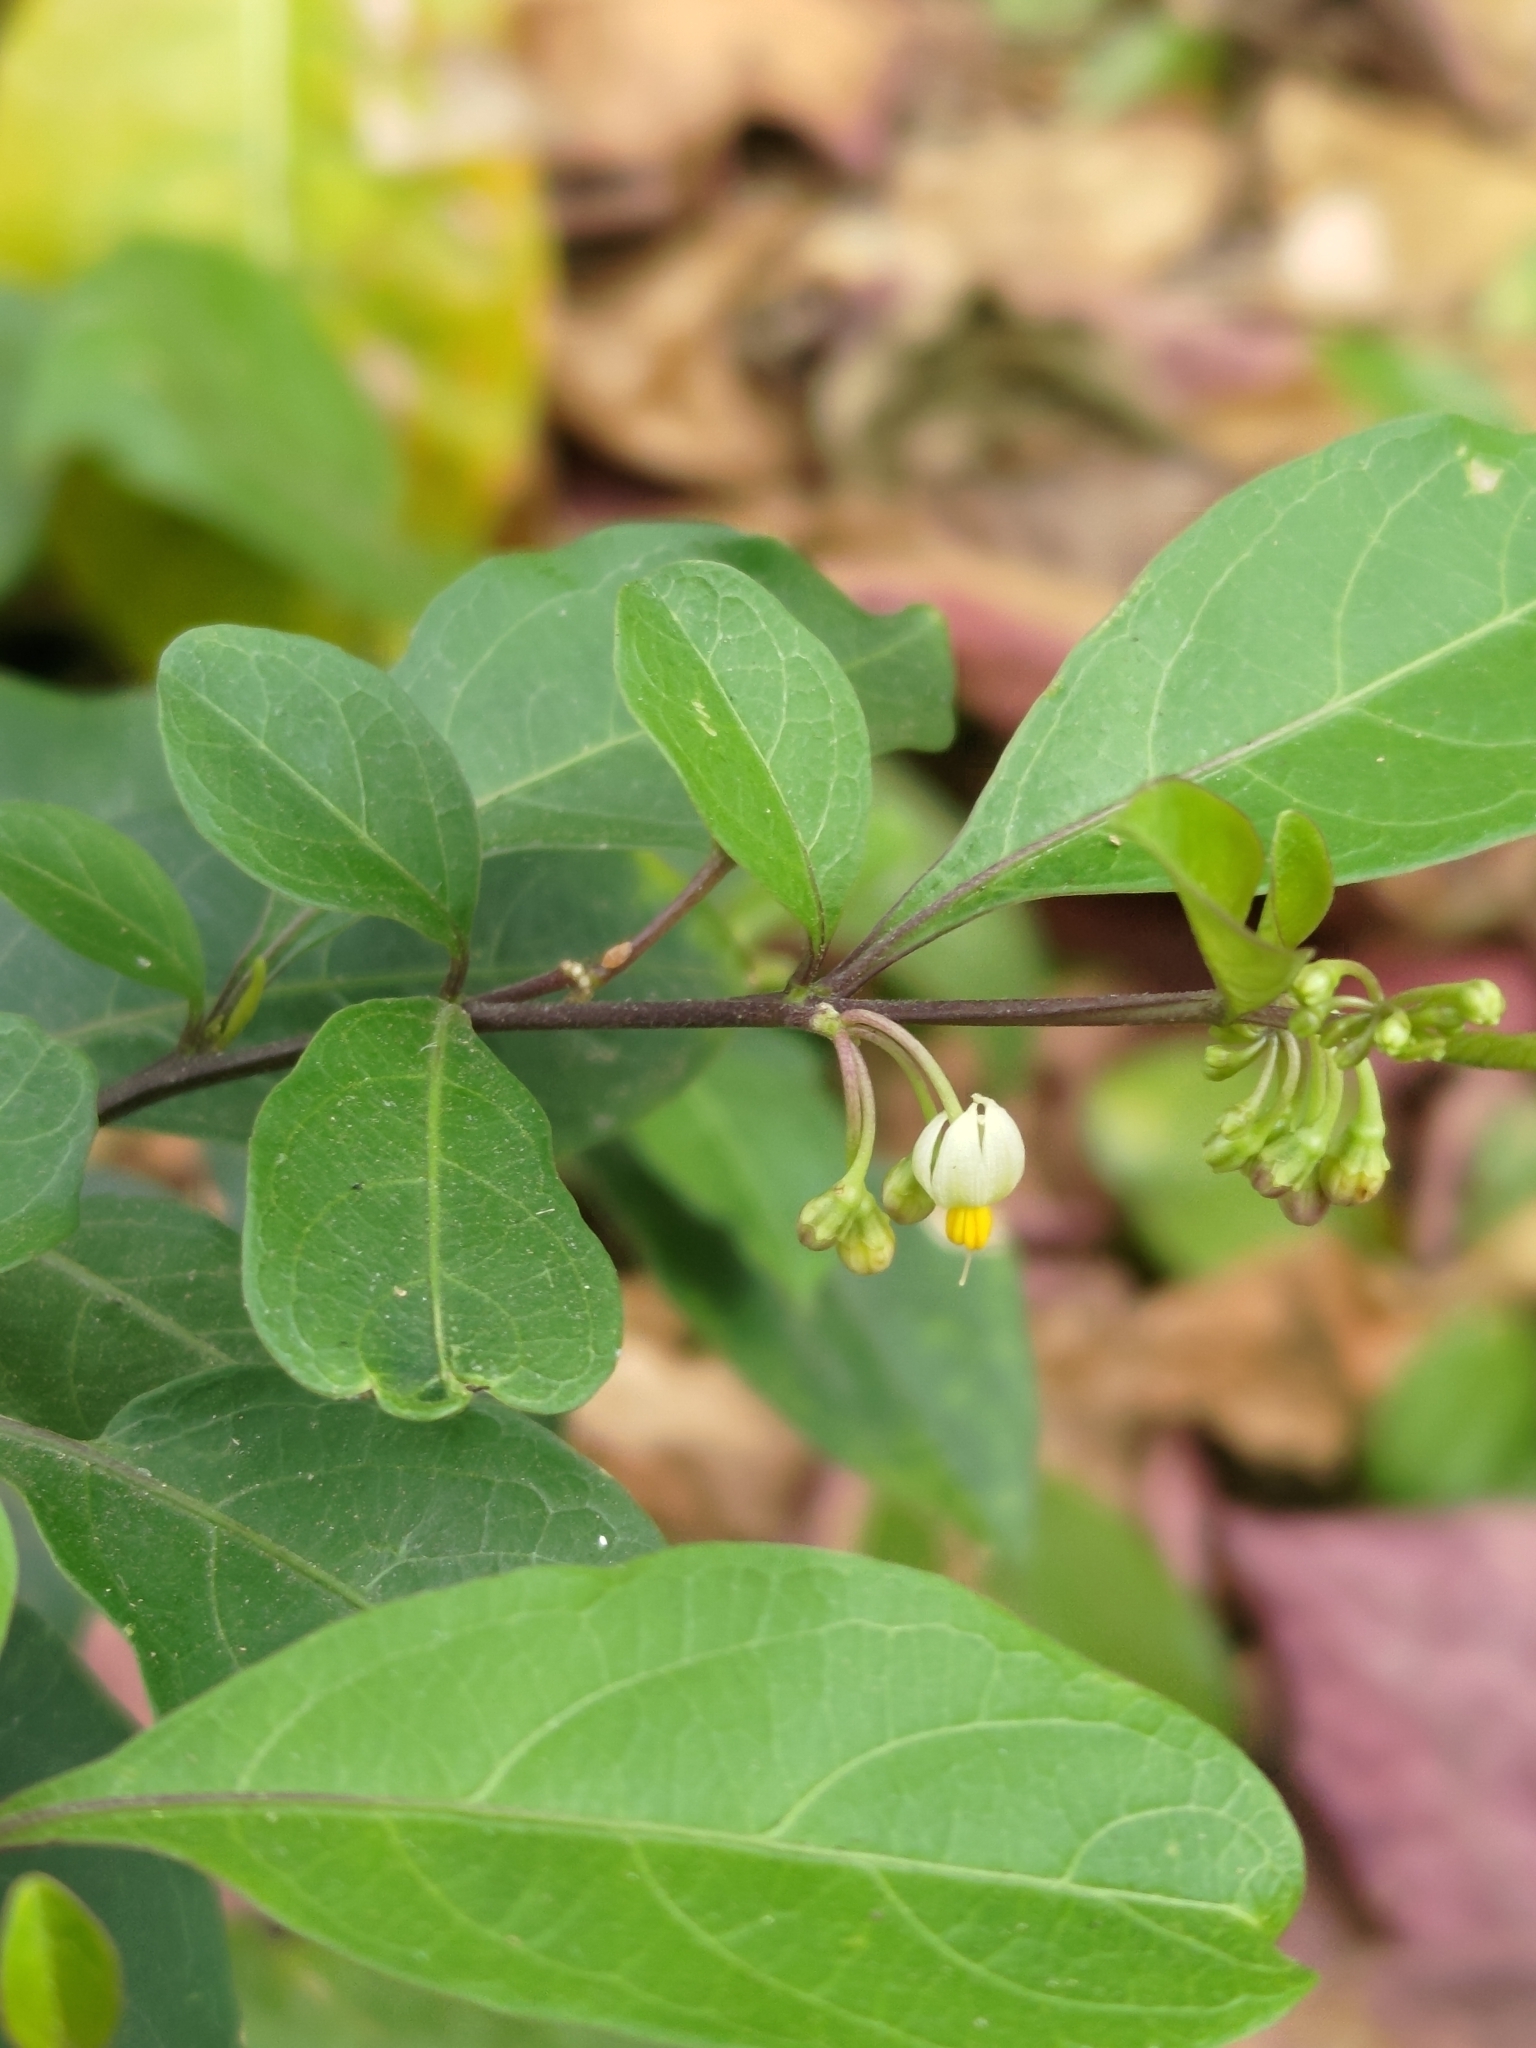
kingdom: Plantae
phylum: Tracheophyta
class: Magnoliopsida
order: Solanales
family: Solanaceae
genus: Solanum
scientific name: Solanum diphyllum
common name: Twoleaf nightshade
